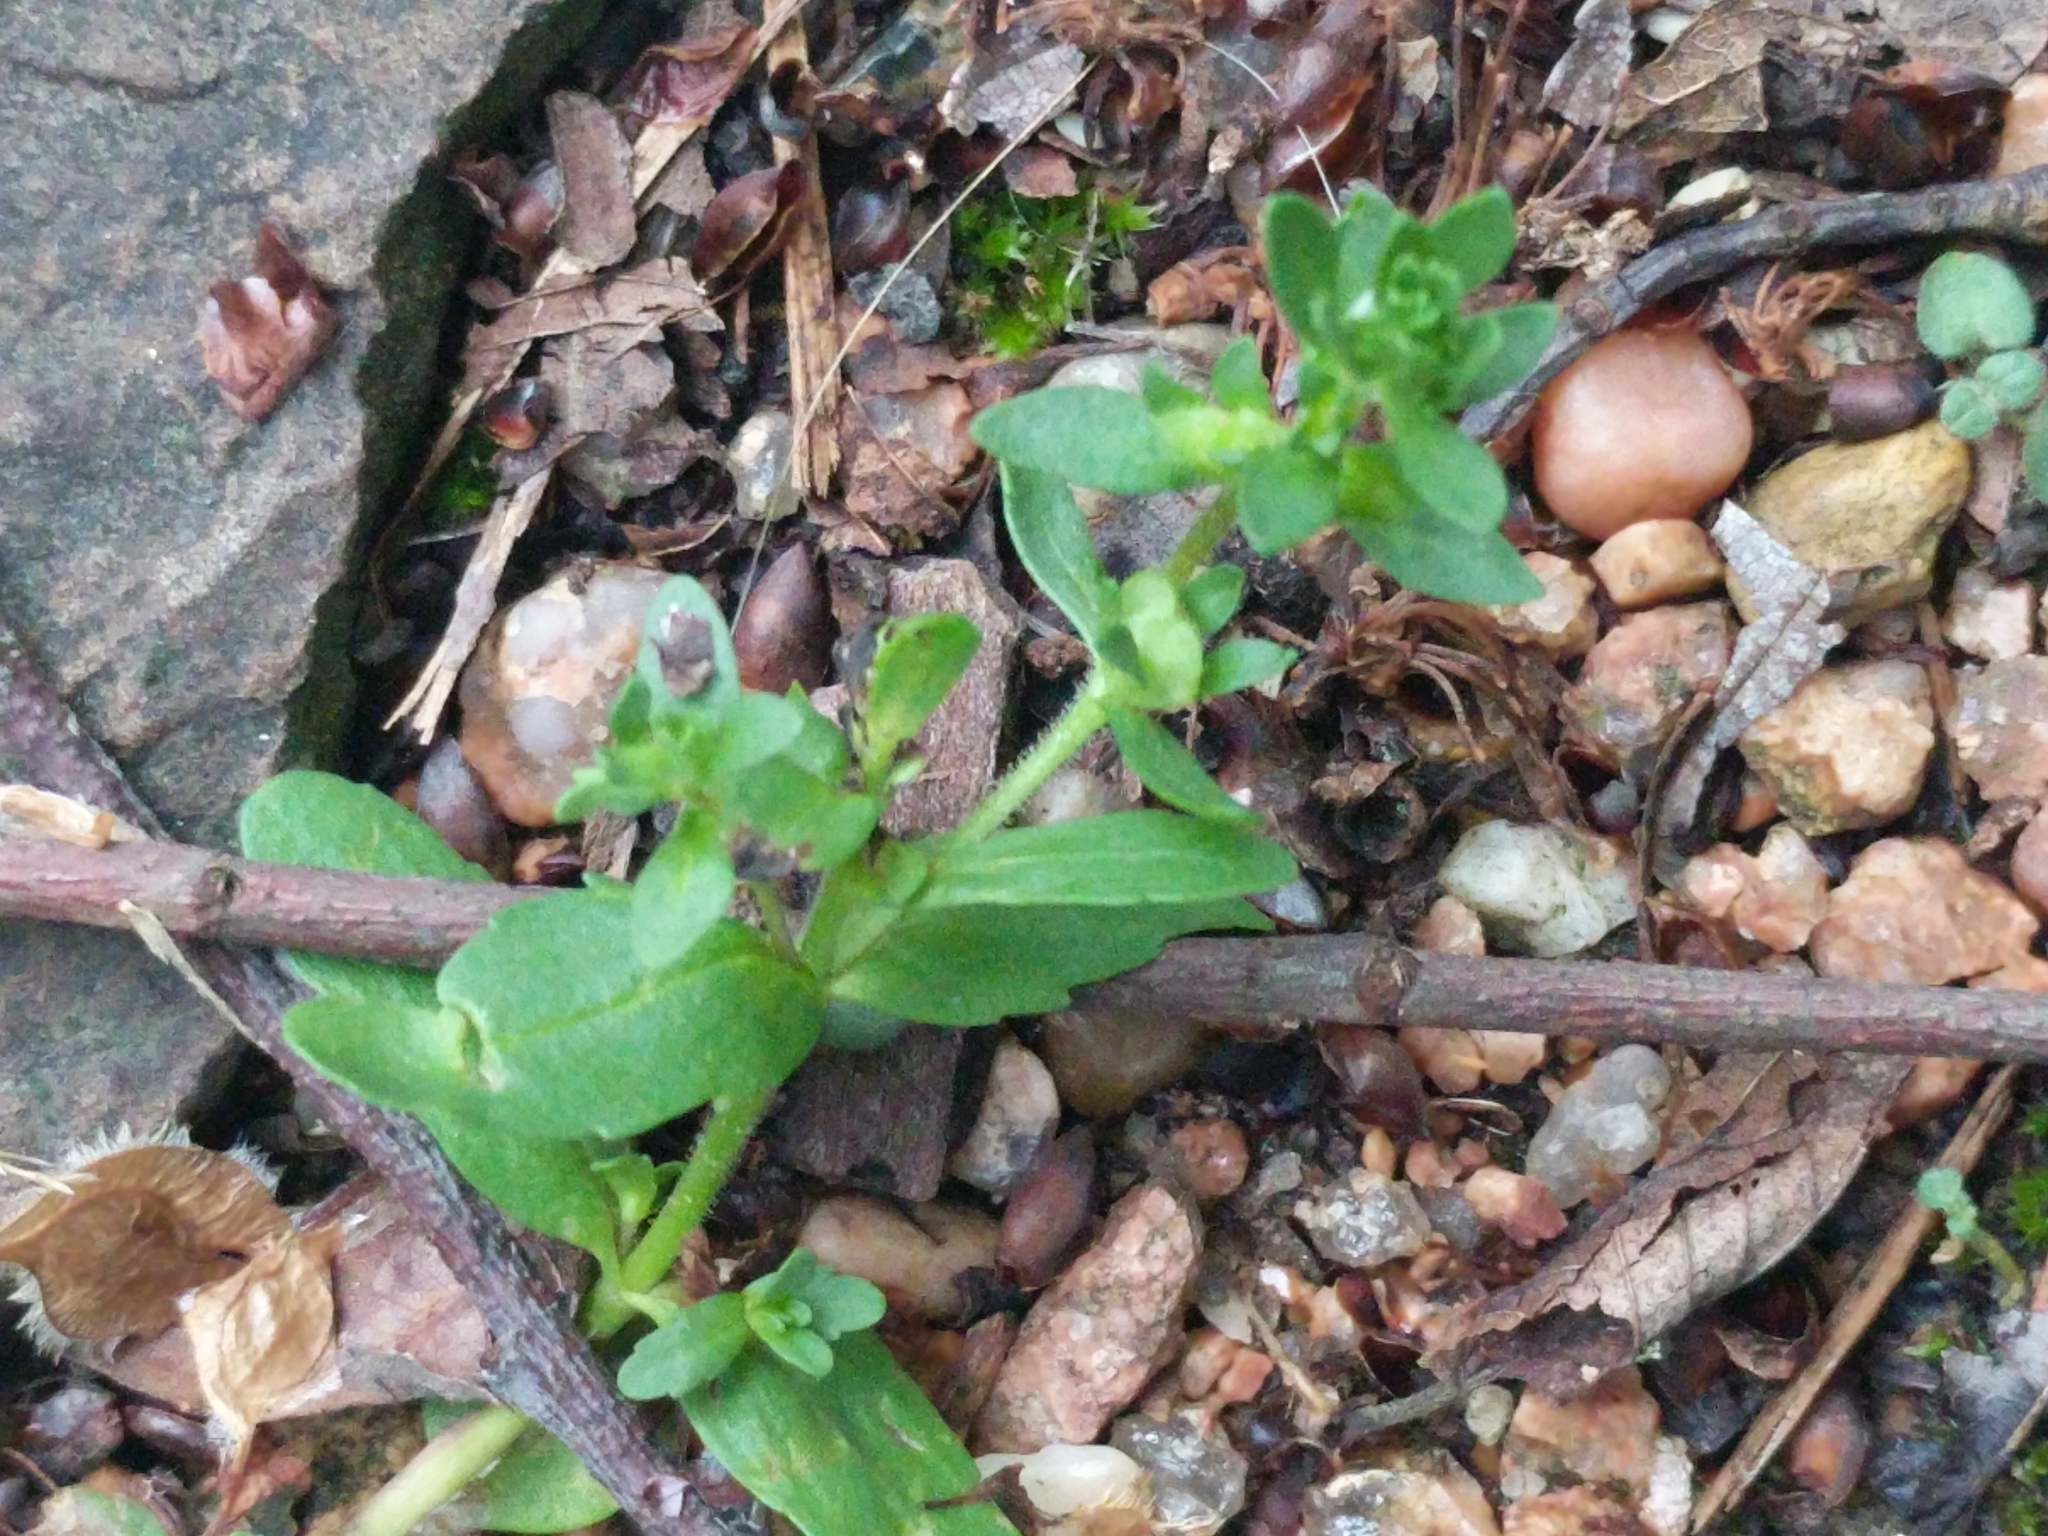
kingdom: Plantae
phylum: Tracheophyta
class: Magnoliopsida
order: Lamiales
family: Plantaginaceae
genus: Veronica
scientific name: Veronica peregrina
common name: Neckweed
